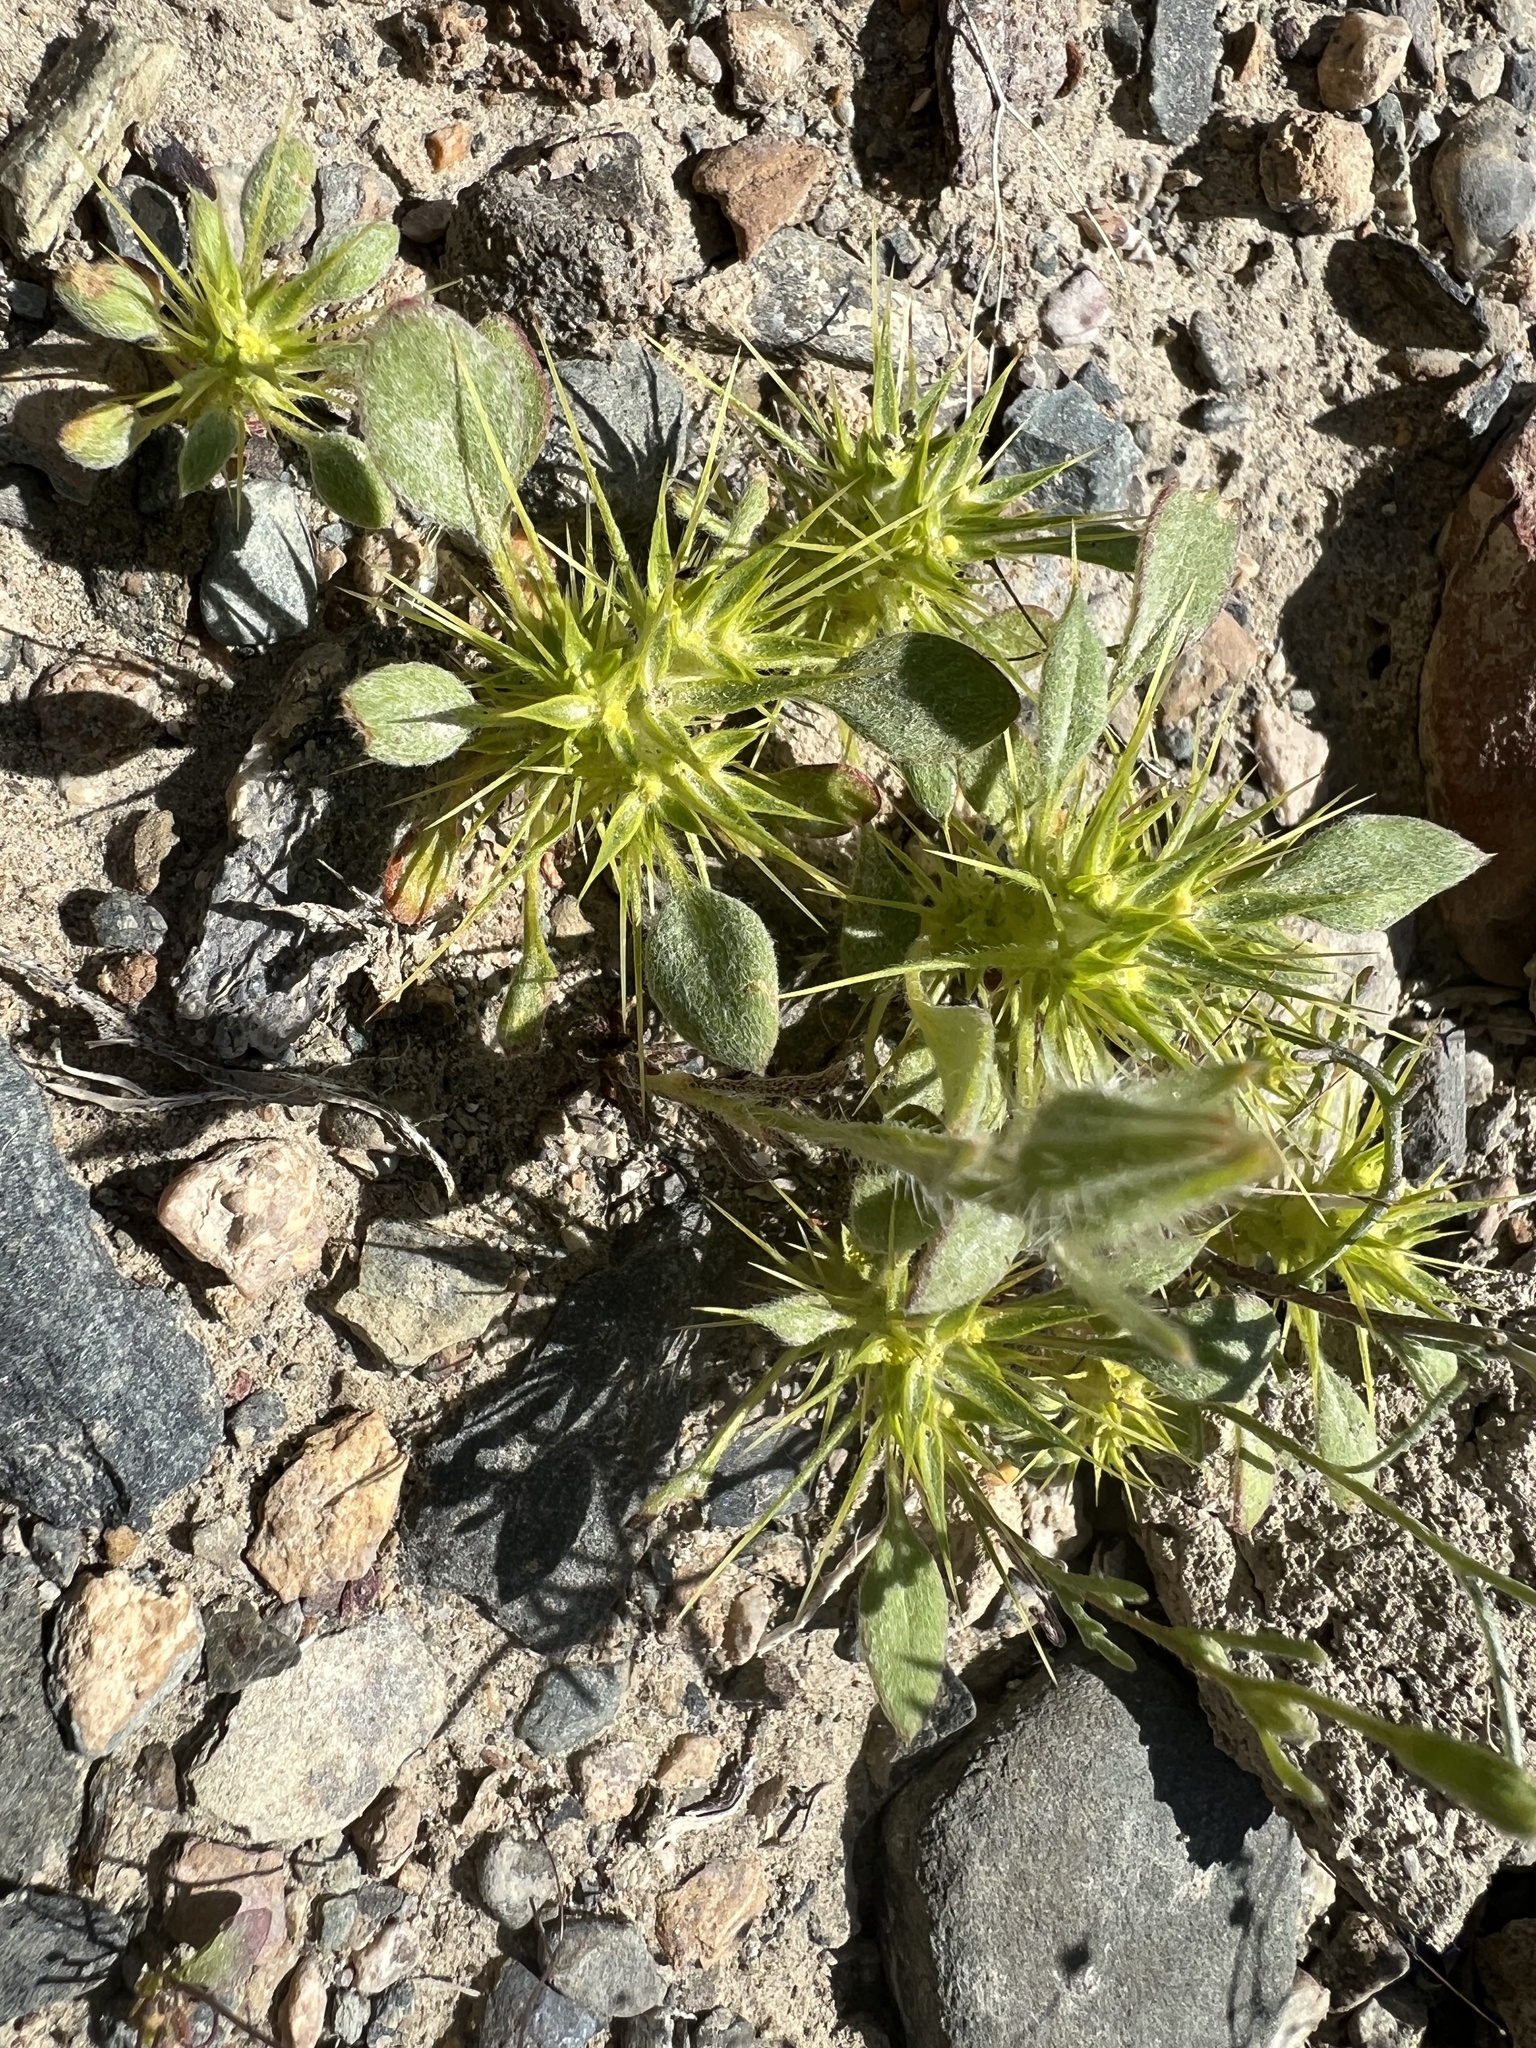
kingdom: Plantae
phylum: Tracheophyta
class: Magnoliopsida
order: Caryophyllales
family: Polygonaceae
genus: Chorizanthe
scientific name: Chorizanthe rigida
